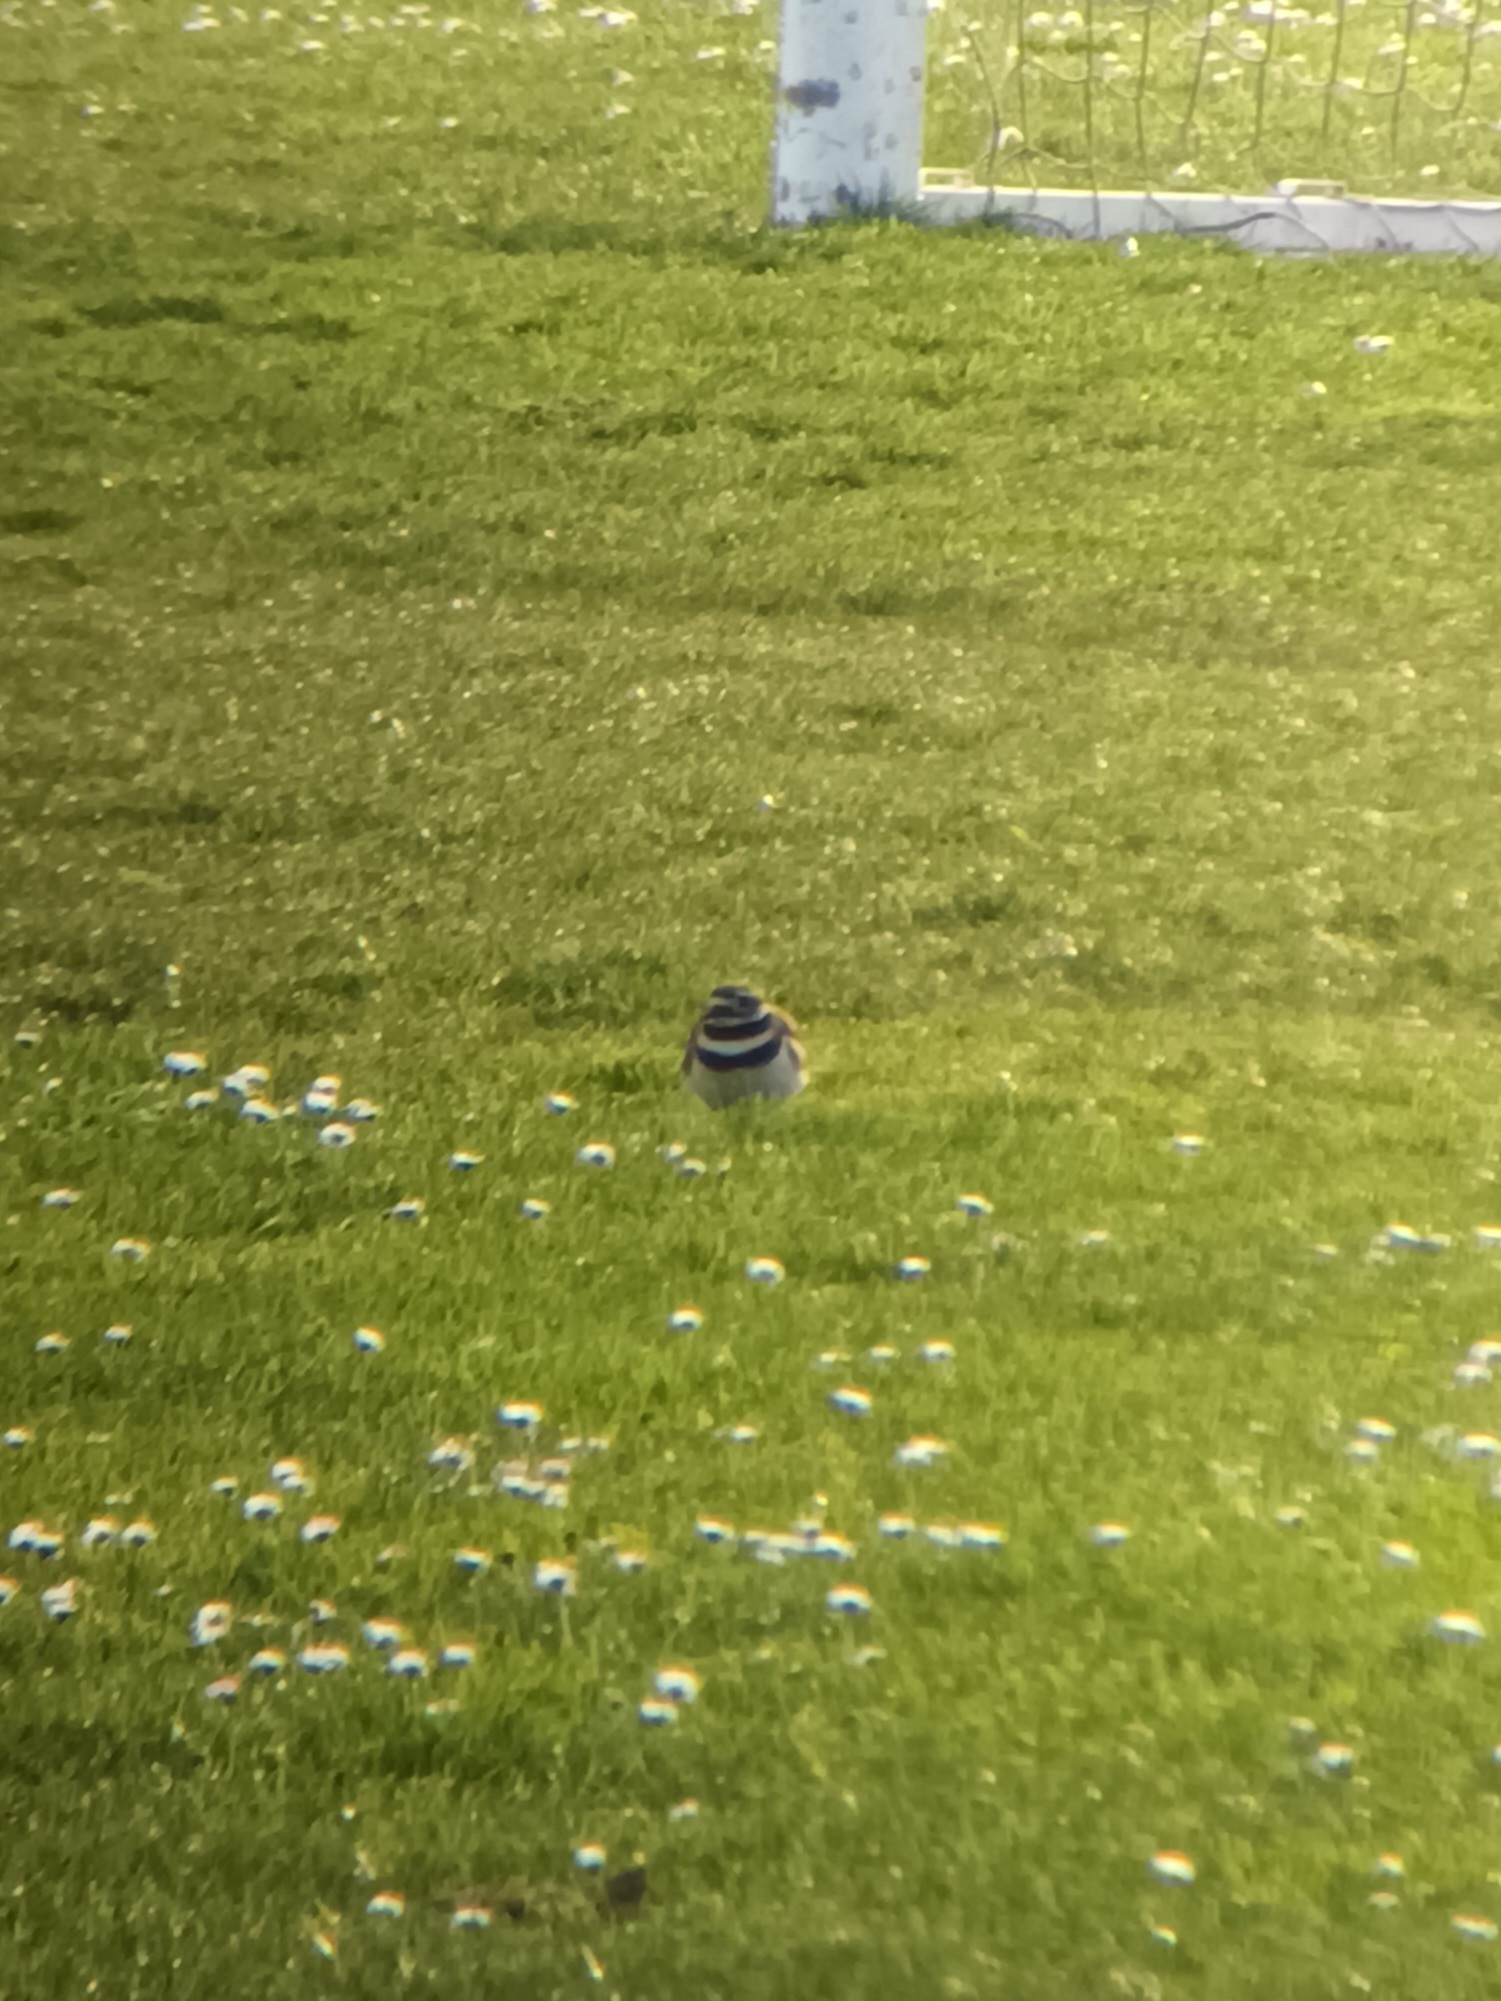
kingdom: Animalia
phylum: Chordata
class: Aves
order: Charadriiformes
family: Charadriidae
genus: Charadrius
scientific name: Charadrius vociferus
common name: Killdeer
